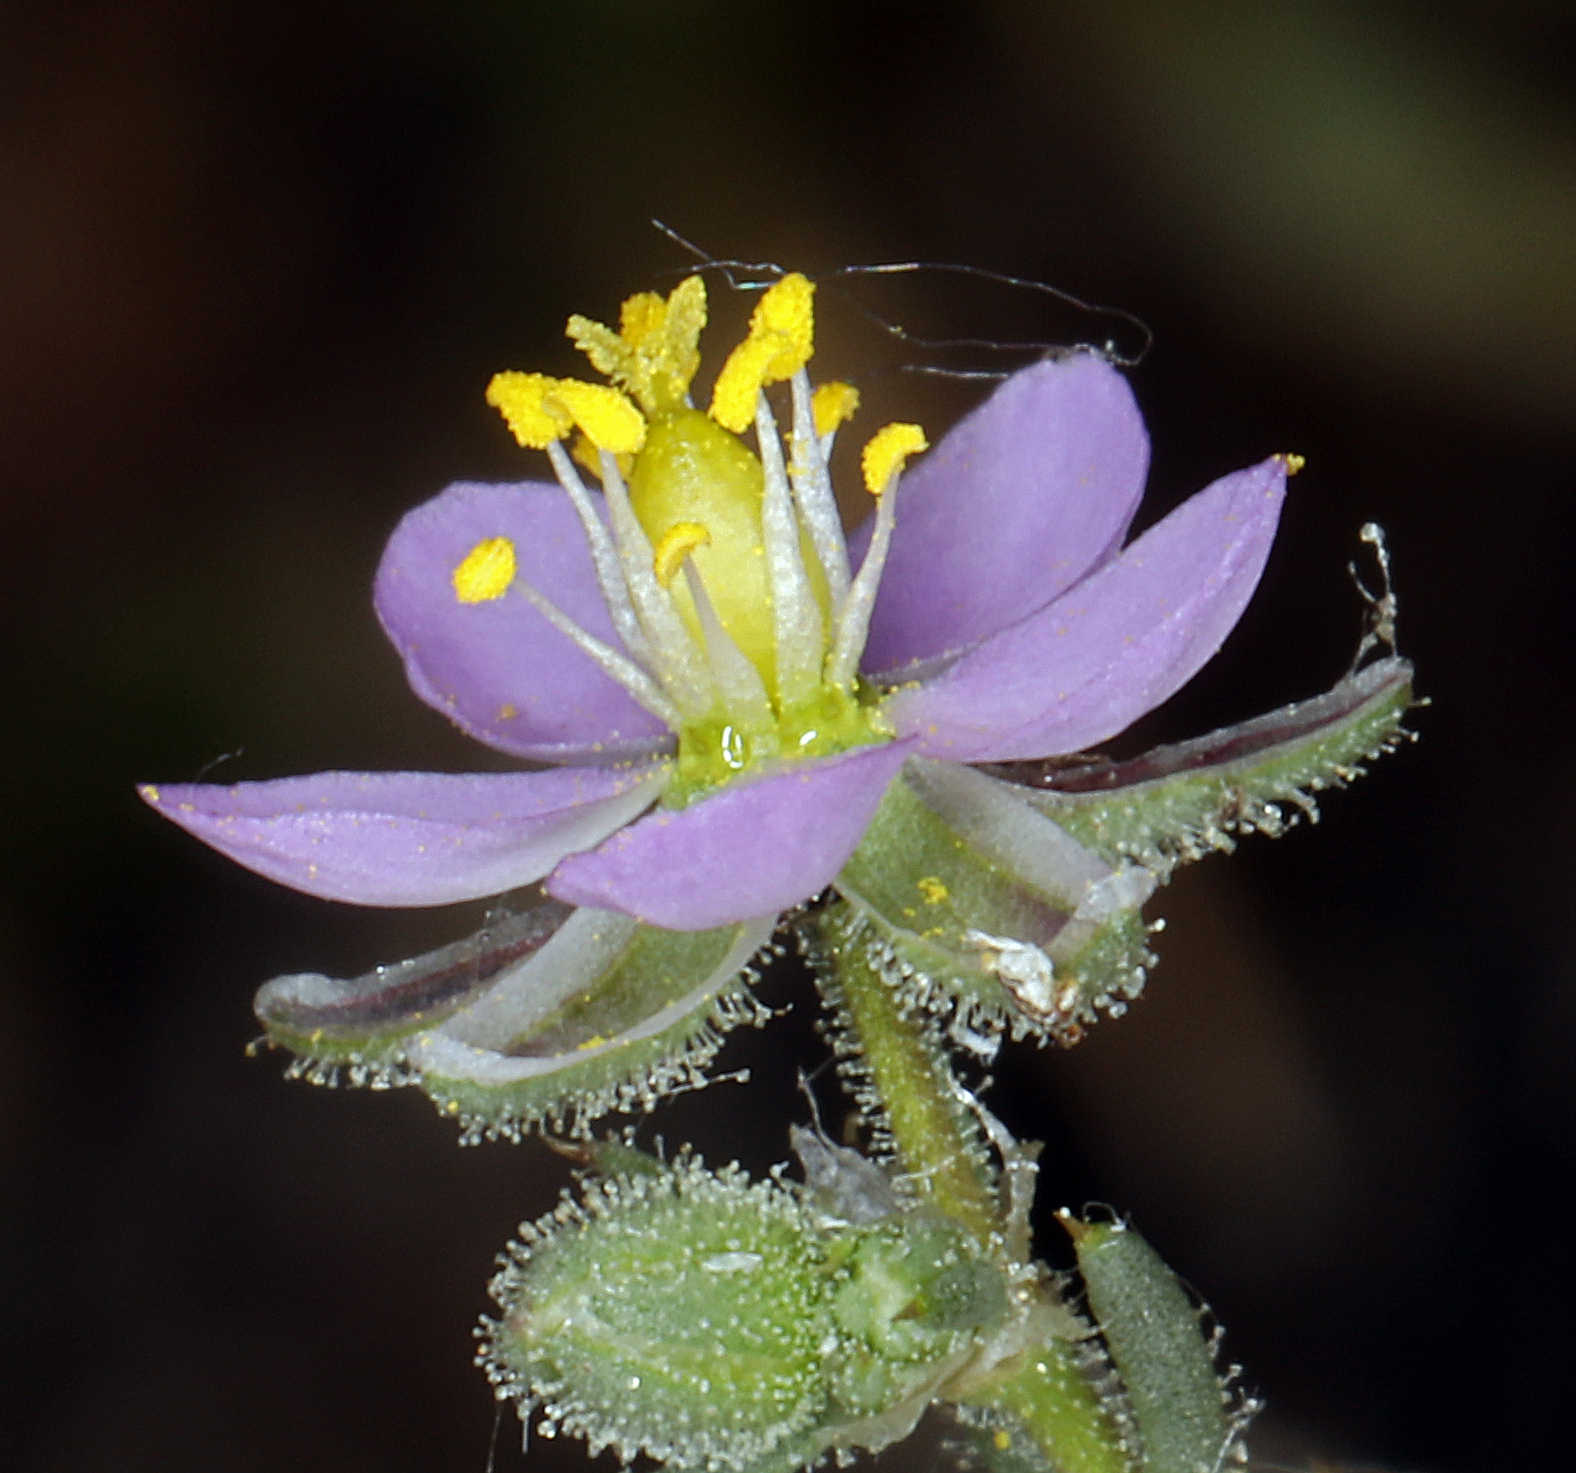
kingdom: Plantae
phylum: Tracheophyta
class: Magnoliopsida
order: Caryophyllales
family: Caryophyllaceae
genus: Spergularia
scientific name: Spergularia rubra
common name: Red sand-spurrey
